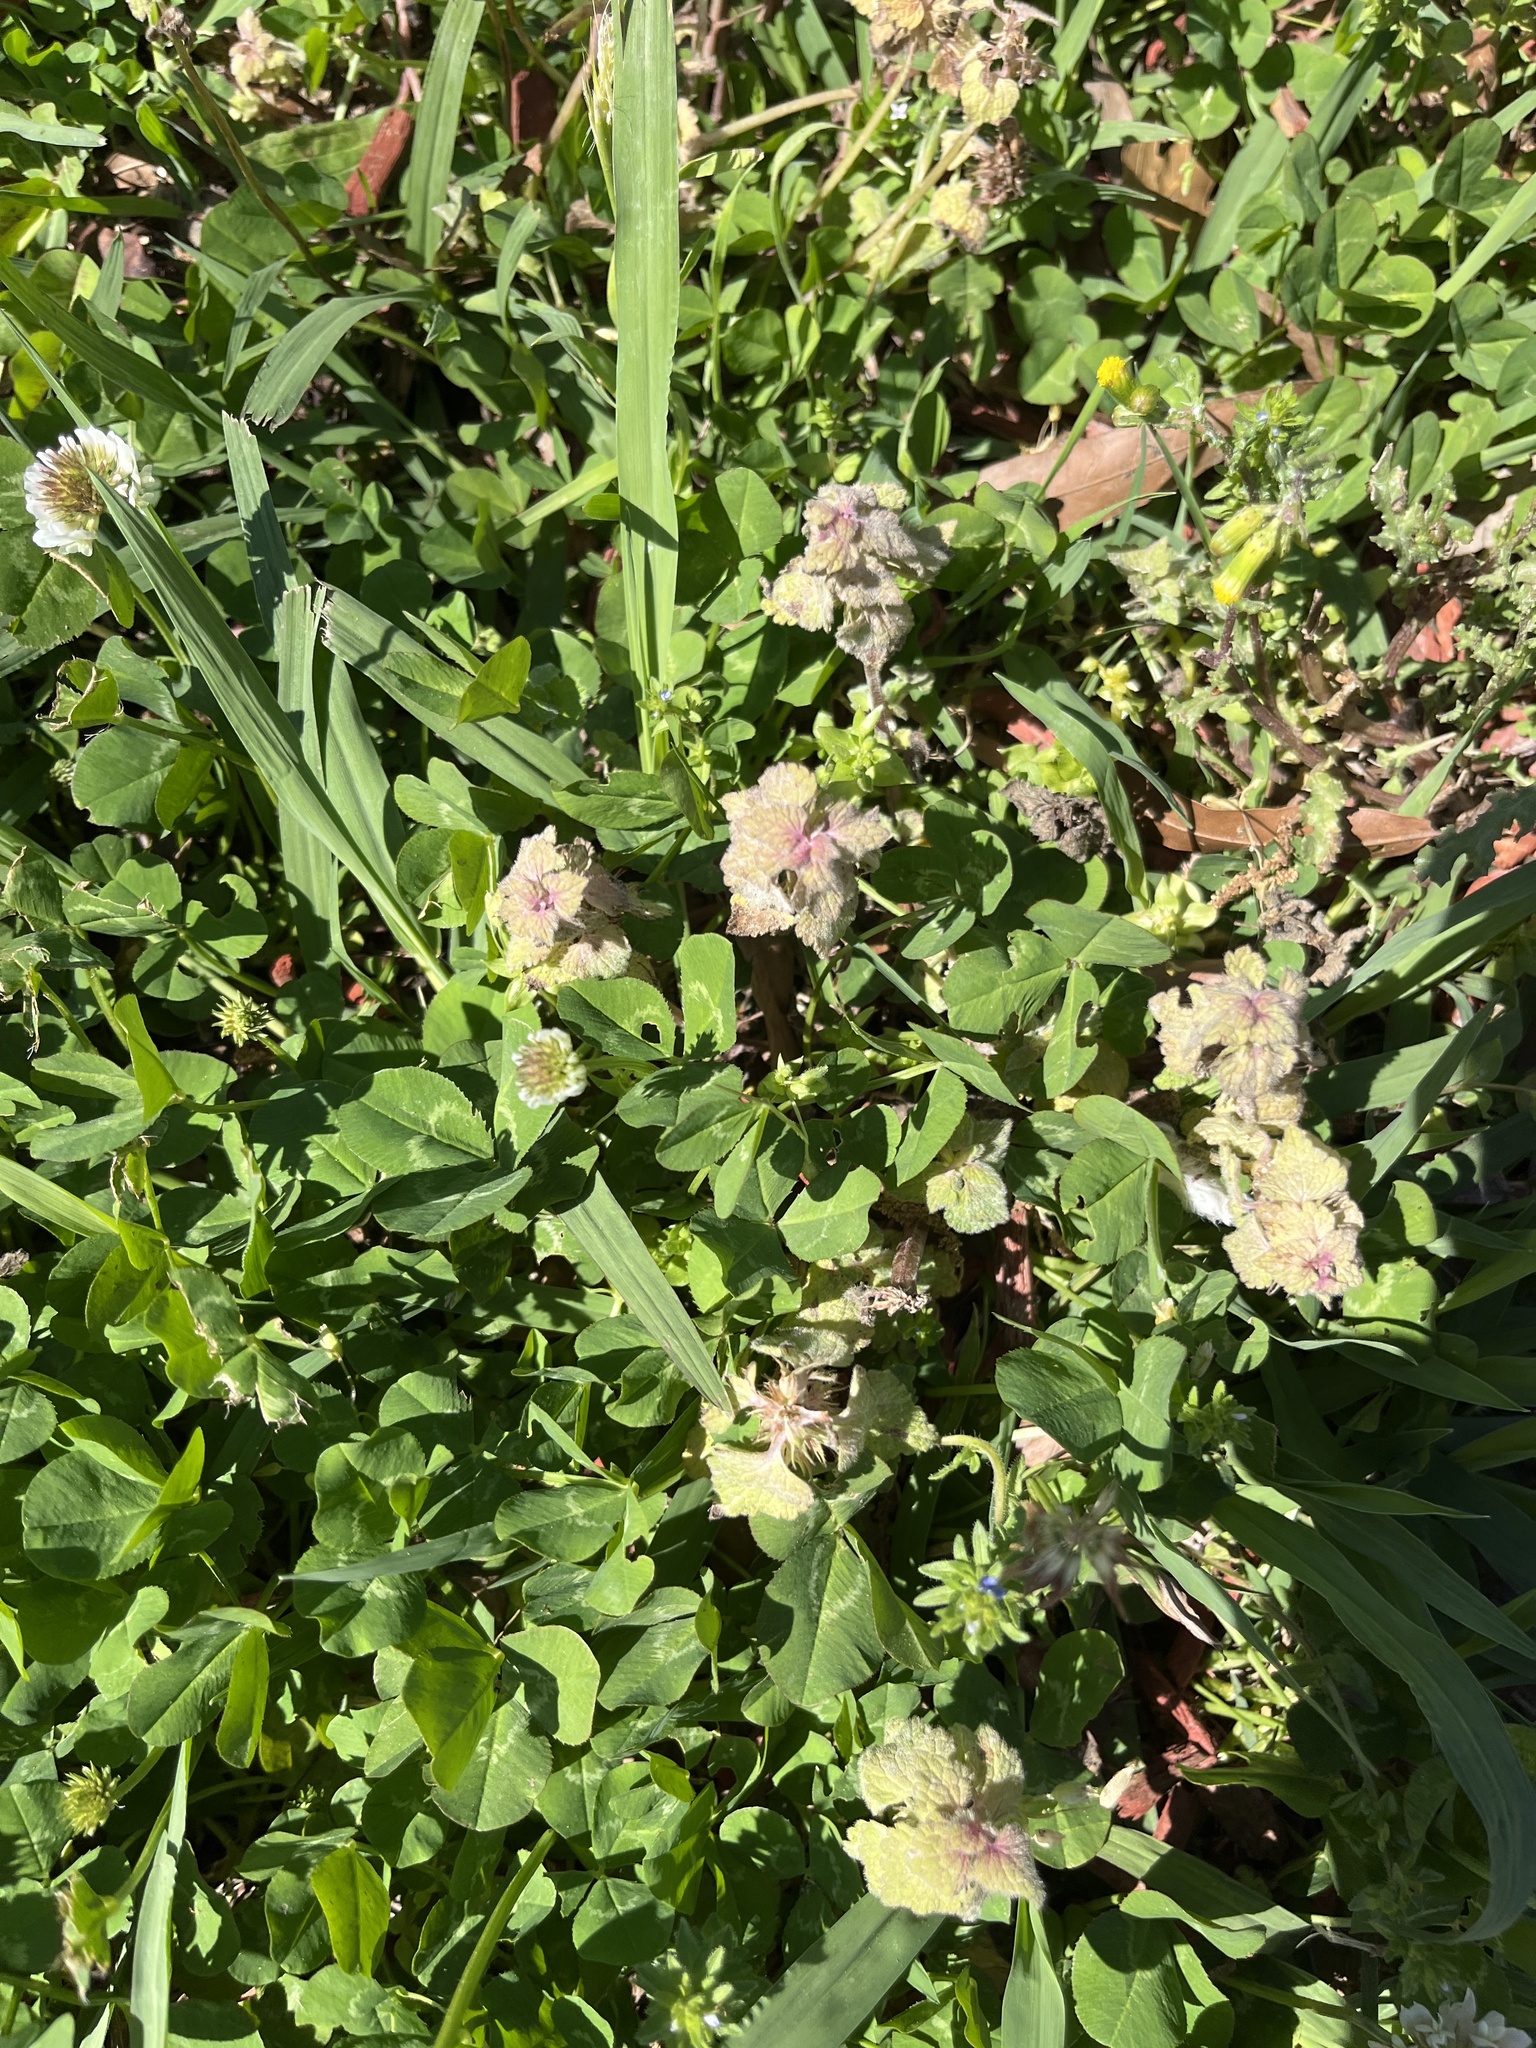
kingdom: Plantae
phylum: Tracheophyta
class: Magnoliopsida
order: Lamiales
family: Lamiaceae
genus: Lamium
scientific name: Lamium purpureum
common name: Red dead-nettle
